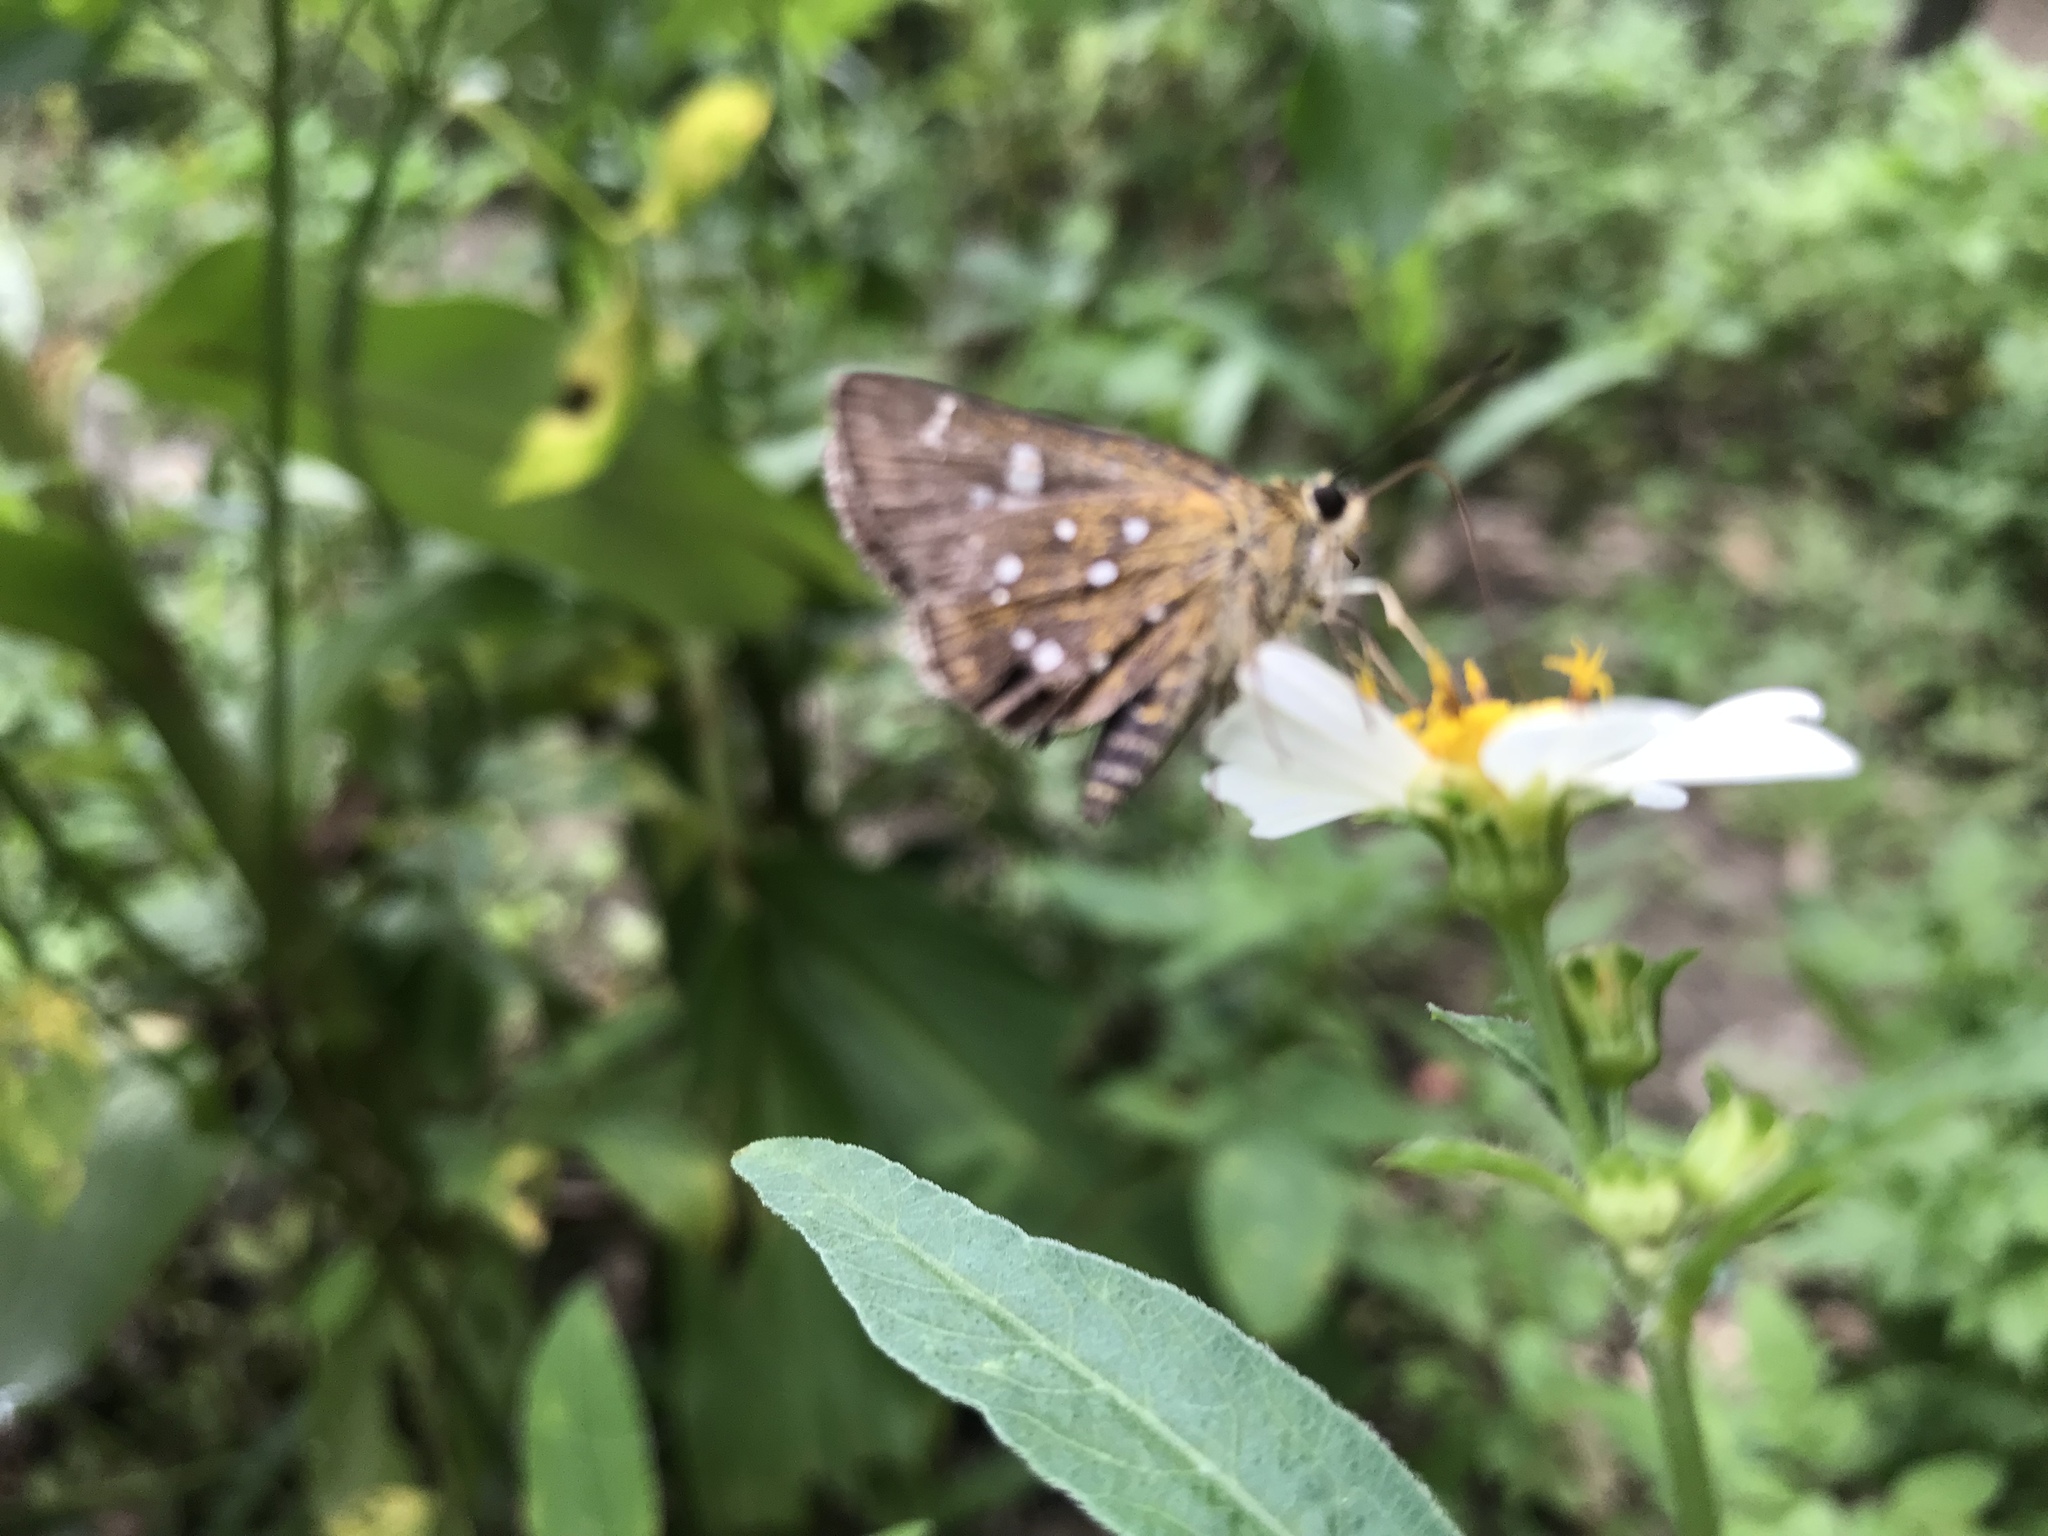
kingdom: Animalia
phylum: Arthropoda
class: Insecta
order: Lepidoptera
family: Hesperiidae
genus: Isoteinon
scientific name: Isoteinon lamprospilus
